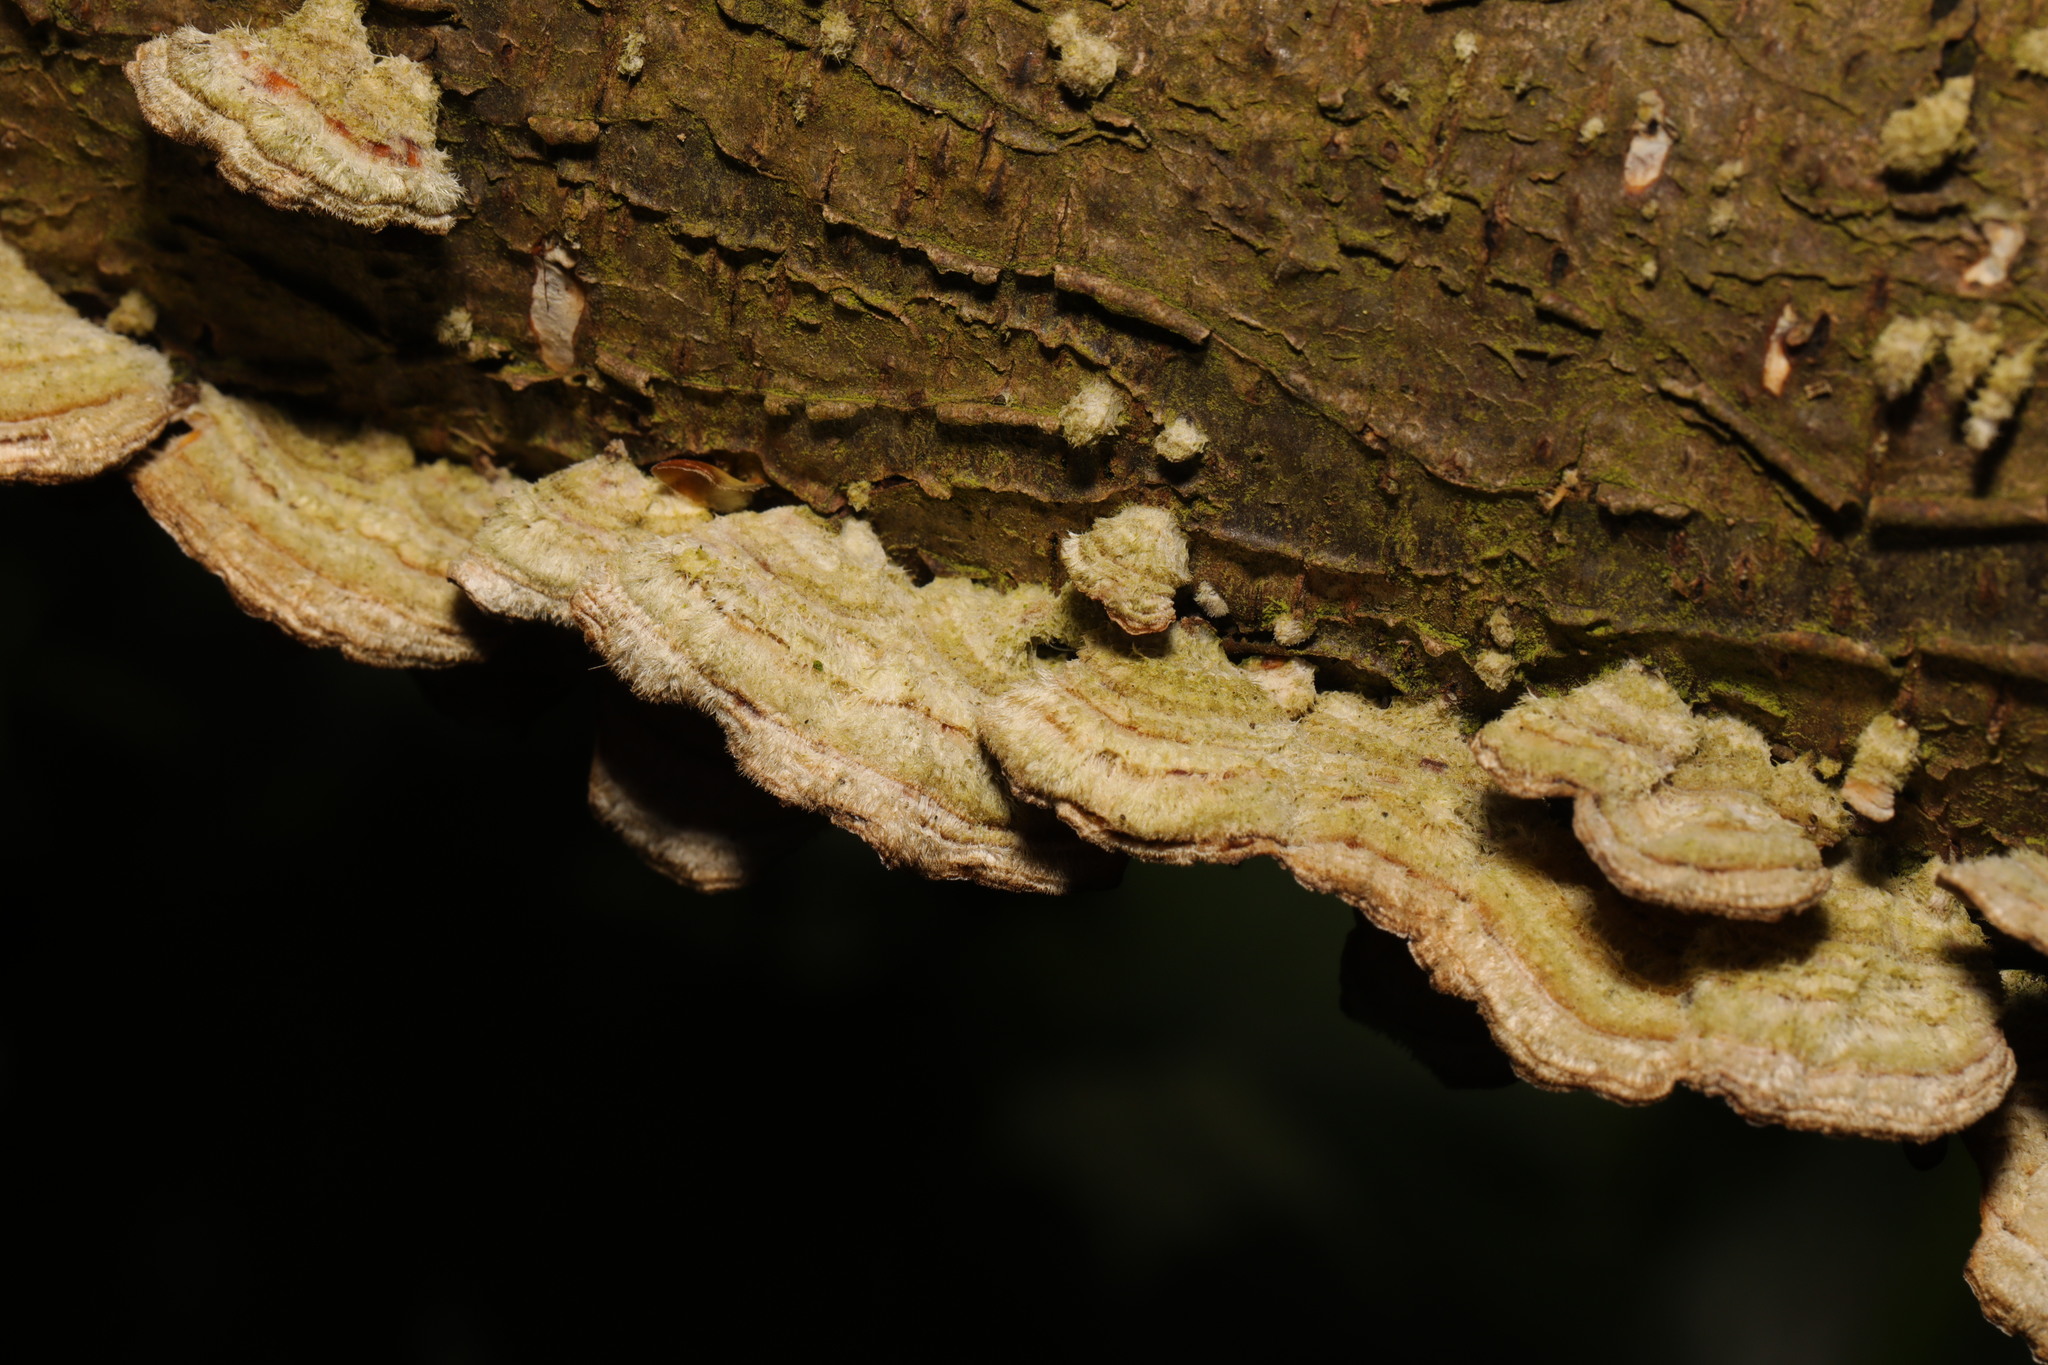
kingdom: Fungi
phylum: Basidiomycota
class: Agaricomycetes
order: Russulales
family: Stereaceae
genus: Stereum
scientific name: Stereum hirsutum
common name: Hairy curtain crust
